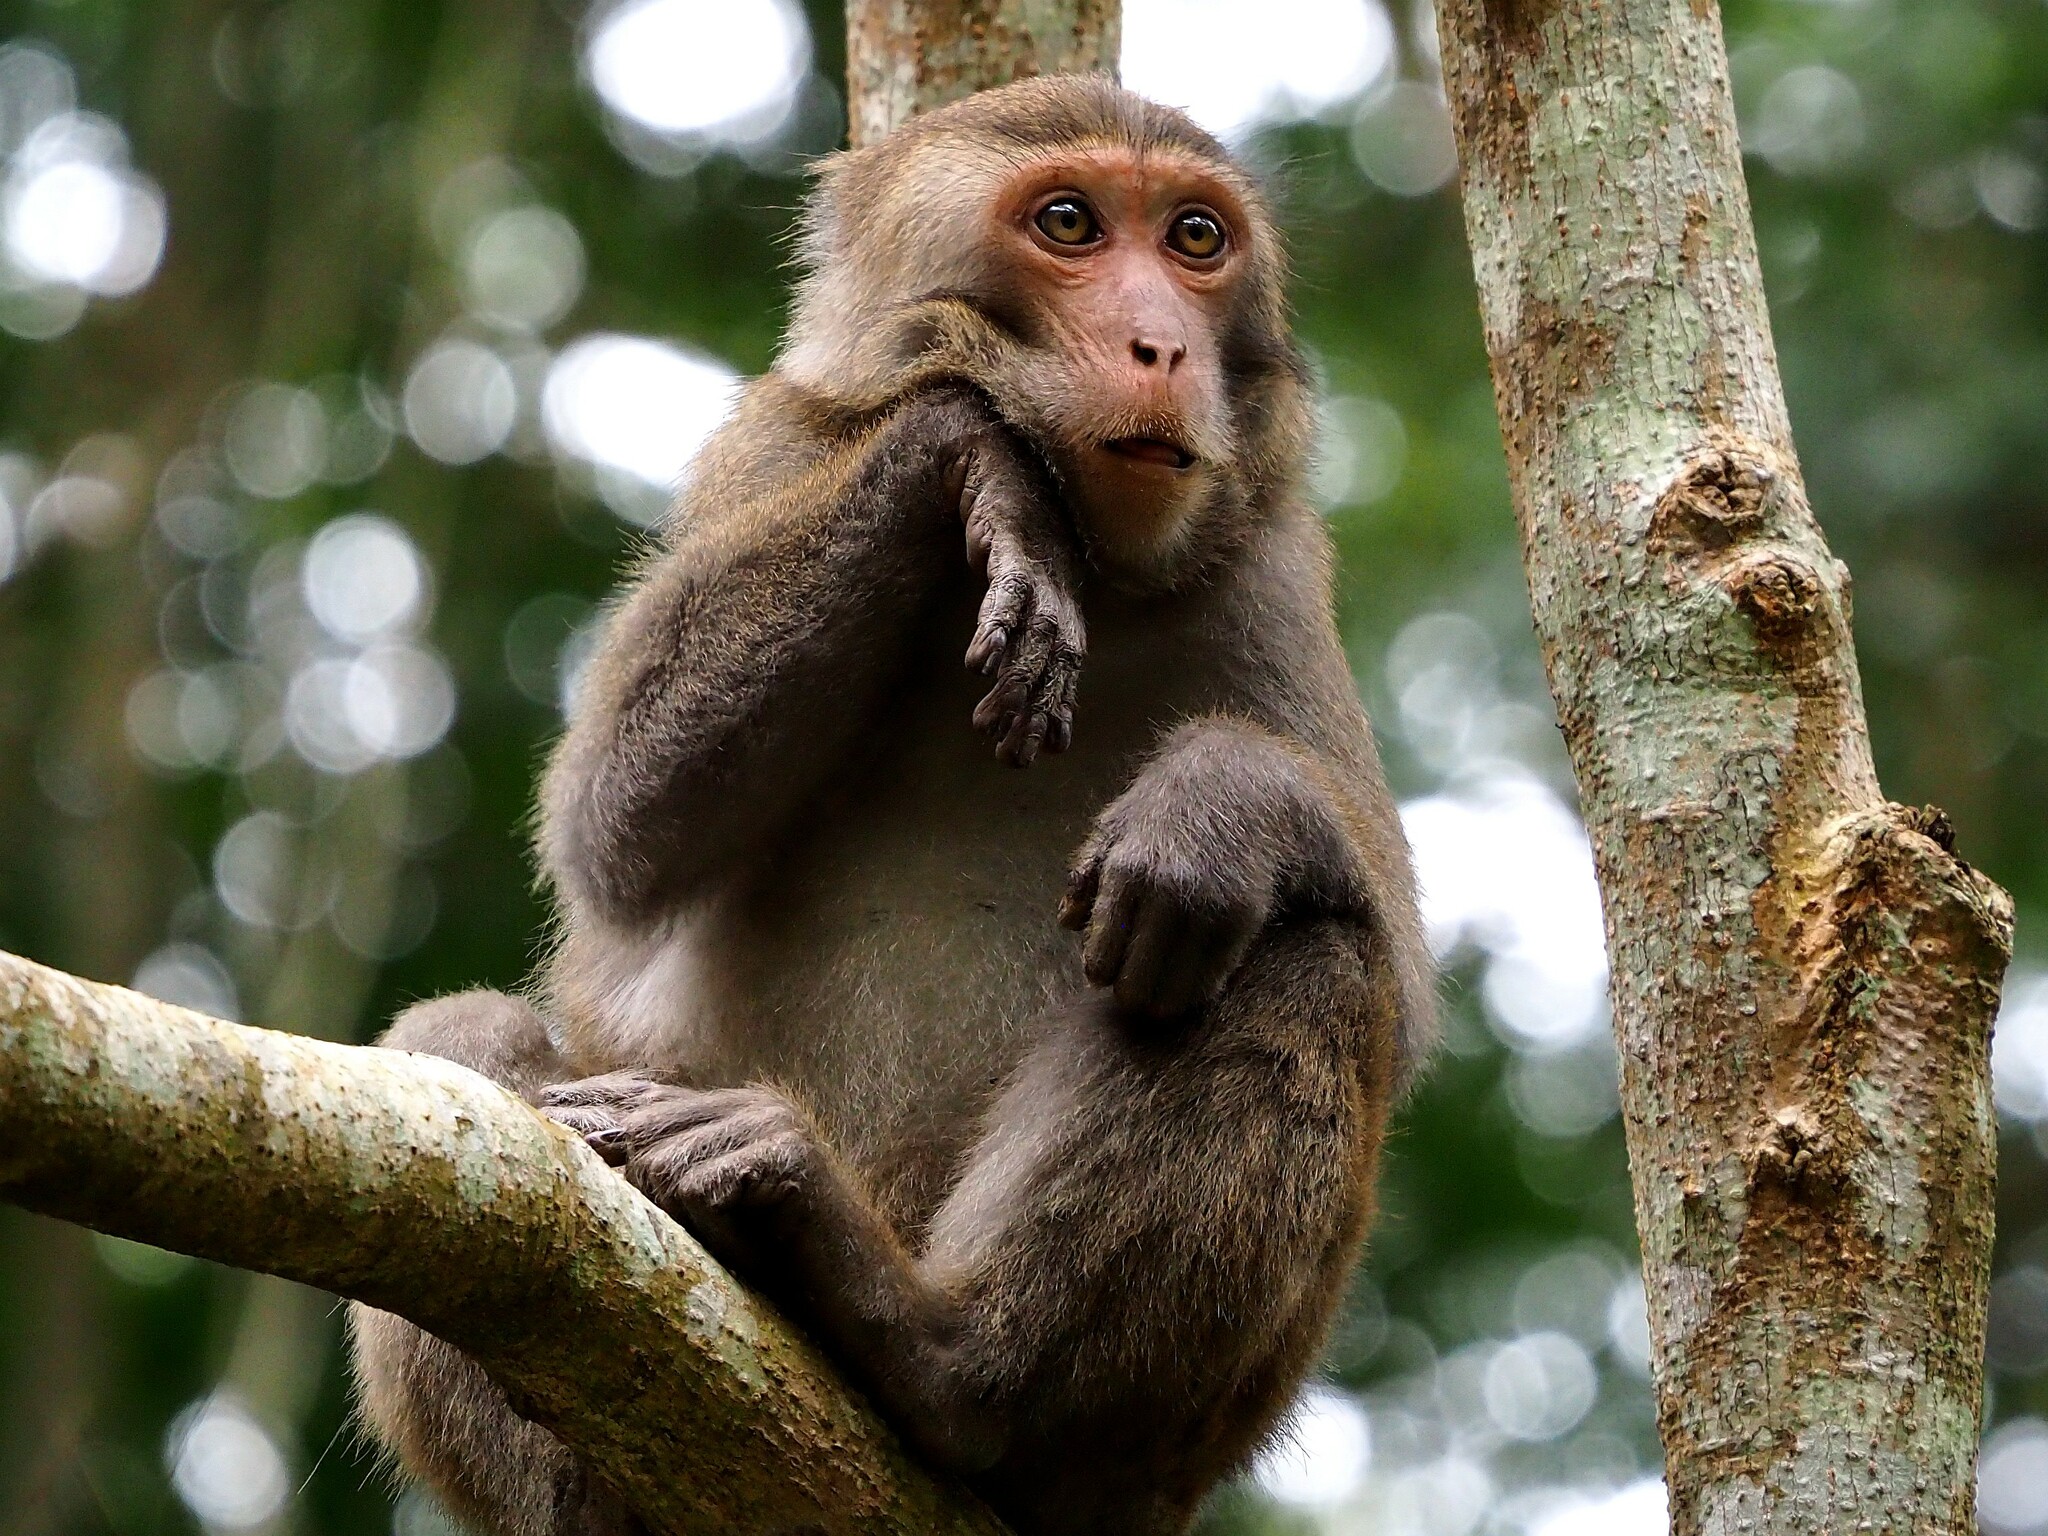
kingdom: Animalia
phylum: Chordata
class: Mammalia
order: Primates
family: Cercopithecidae
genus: Macaca
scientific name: Macaca cyclopis
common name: Formosan rock macaque
